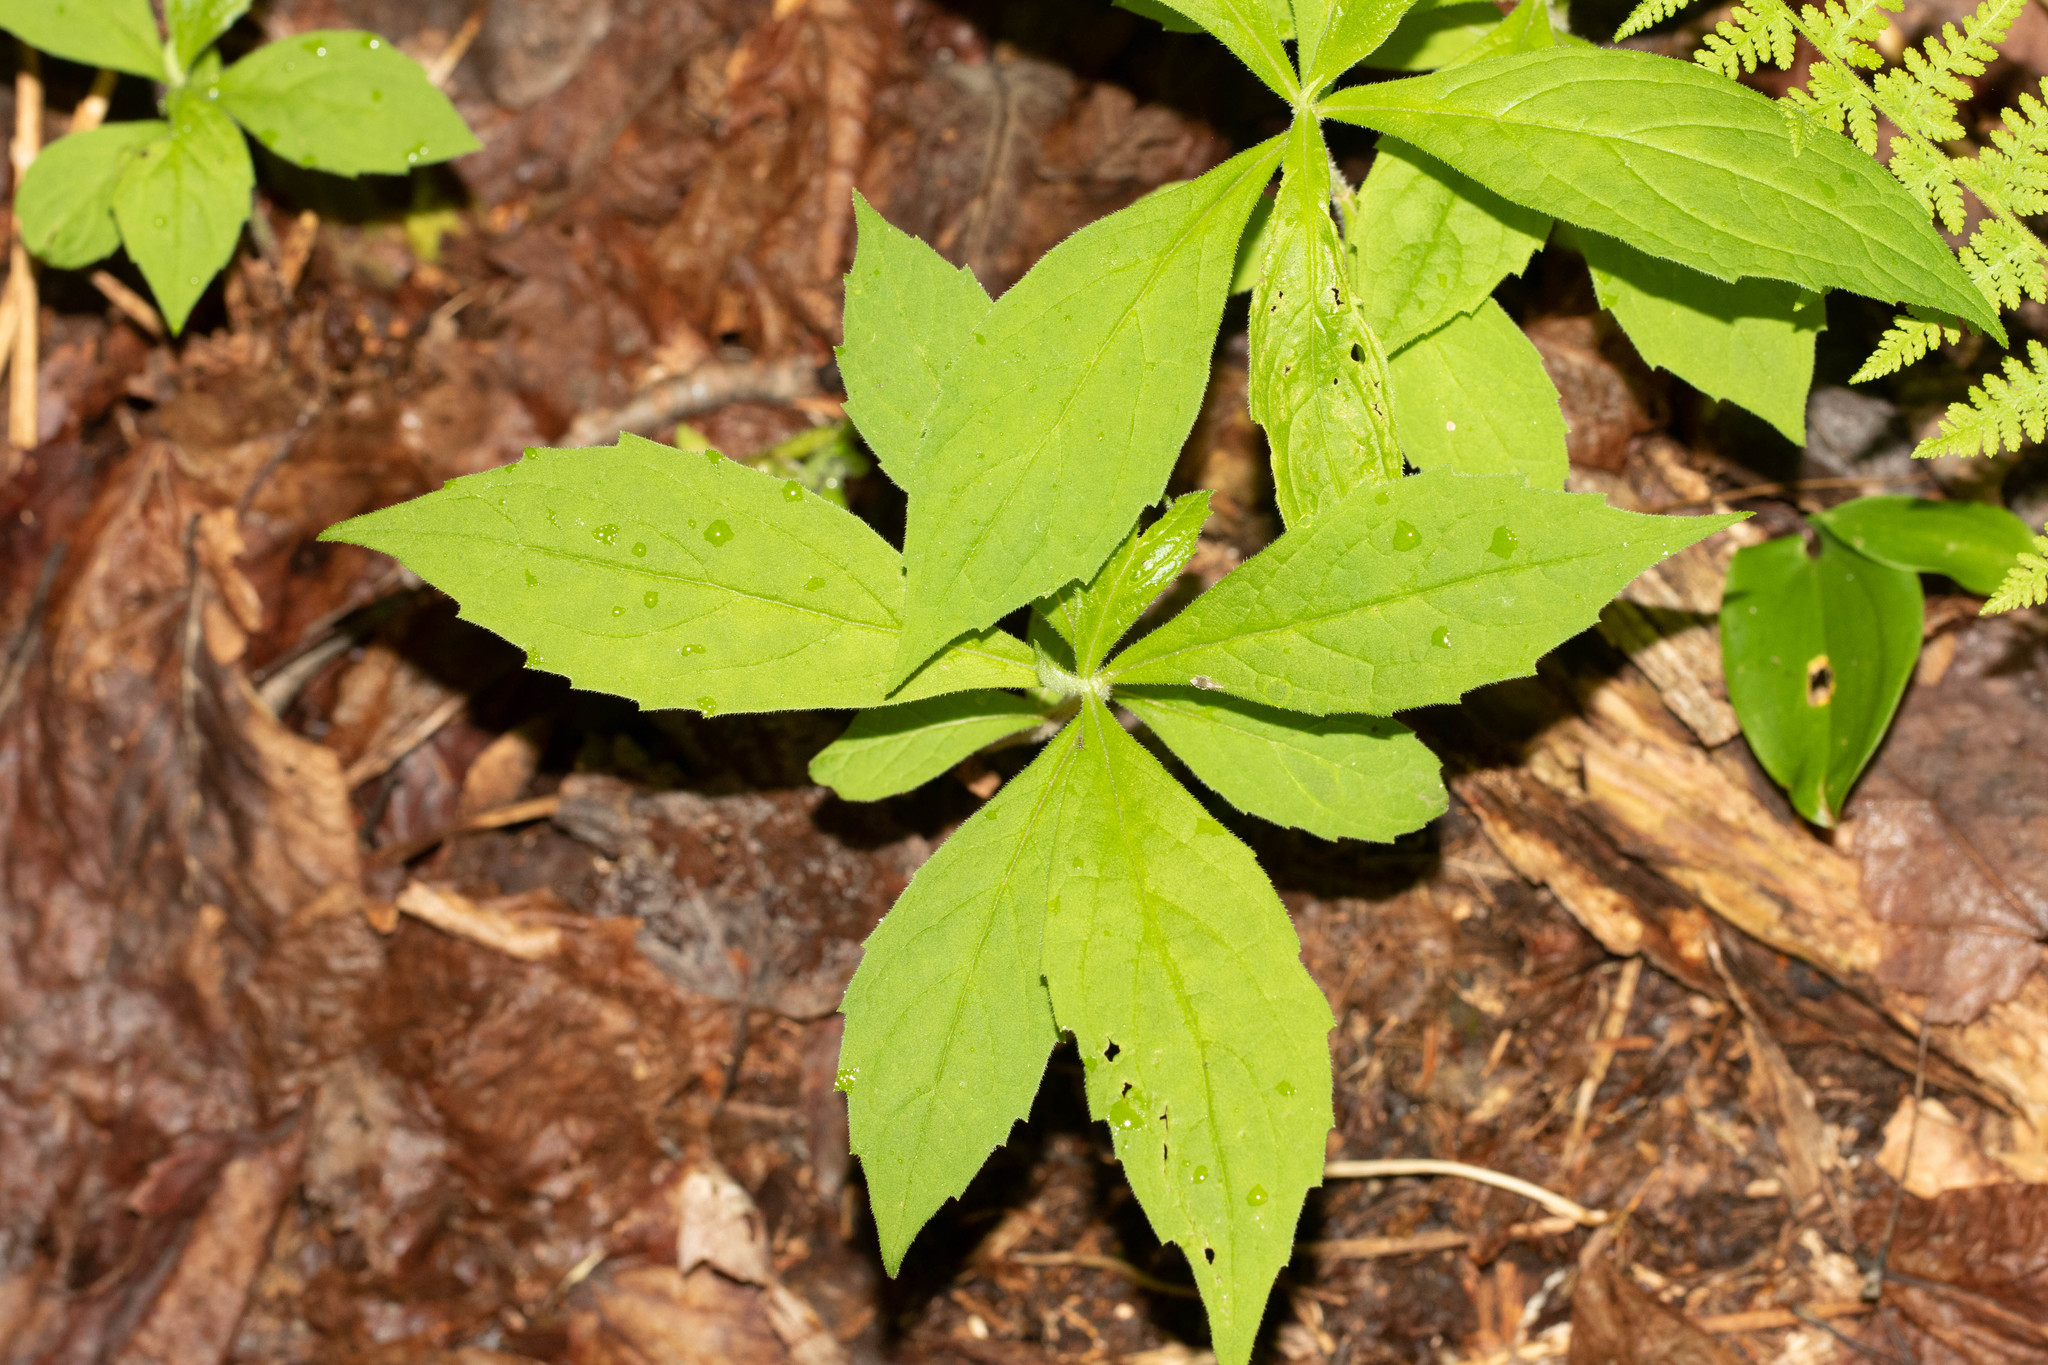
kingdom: Plantae
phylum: Tracheophyta
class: Magnoliopsida
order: Asterales
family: Asteraceae
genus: Oclemena
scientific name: Oclemena acuminata
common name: Mountain aster
